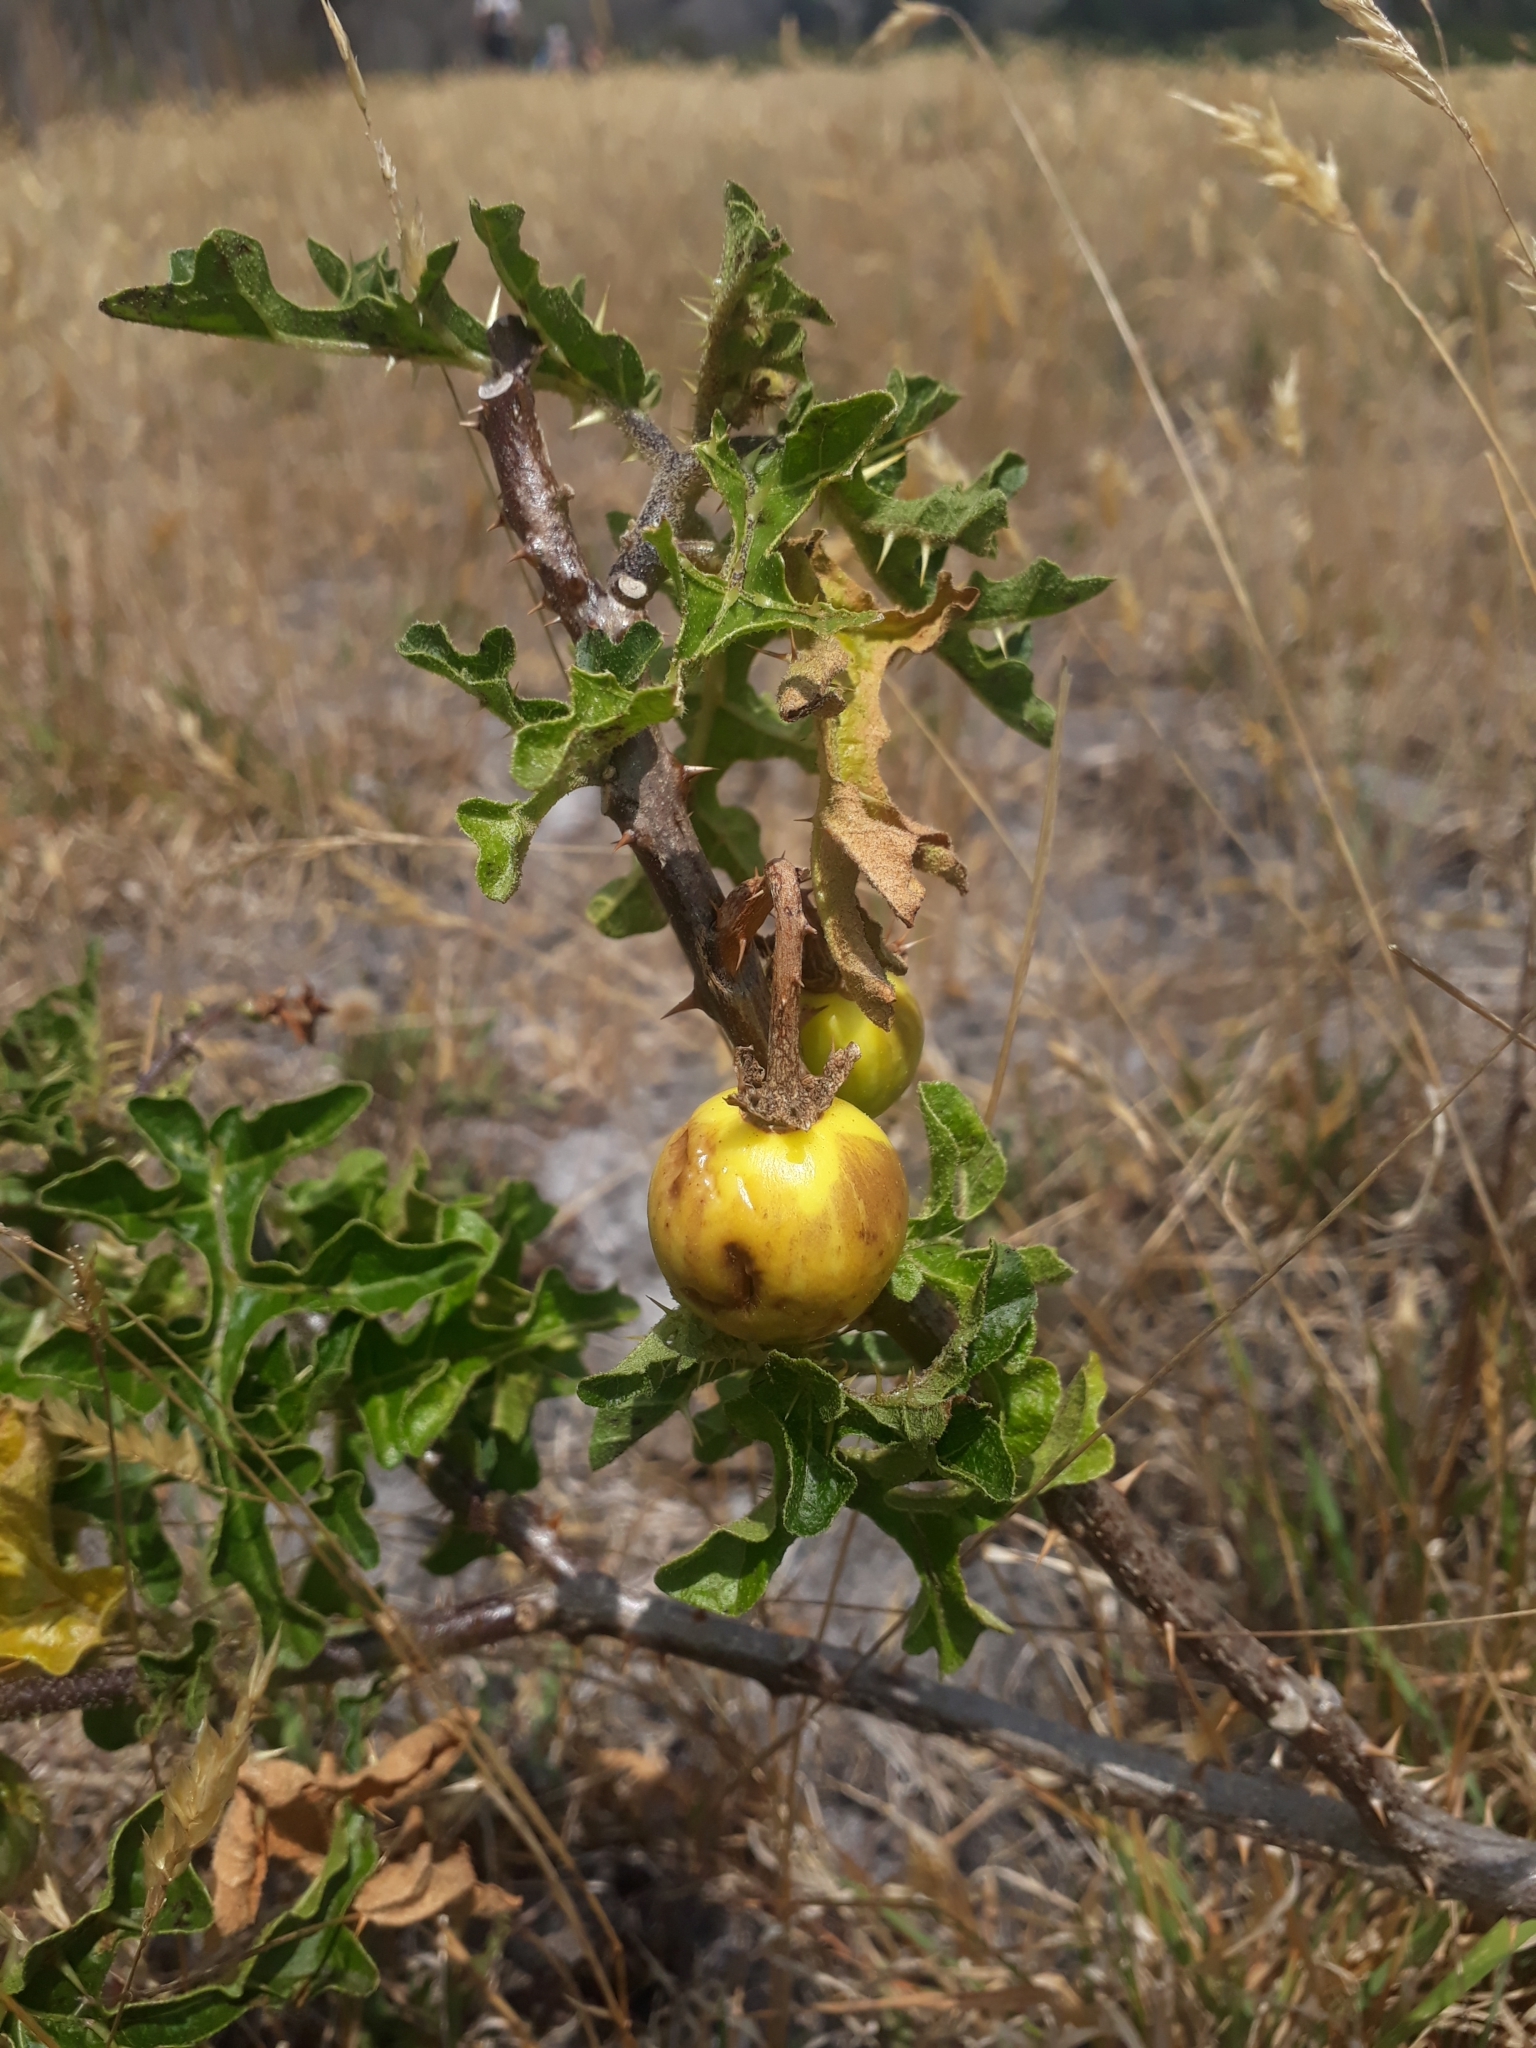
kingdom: Plantae
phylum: Tracheophyta
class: Magnoliopsida
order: Solanales
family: Solanaceae
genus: Solanum
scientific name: Solanum linnaeanum
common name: Nightshade
